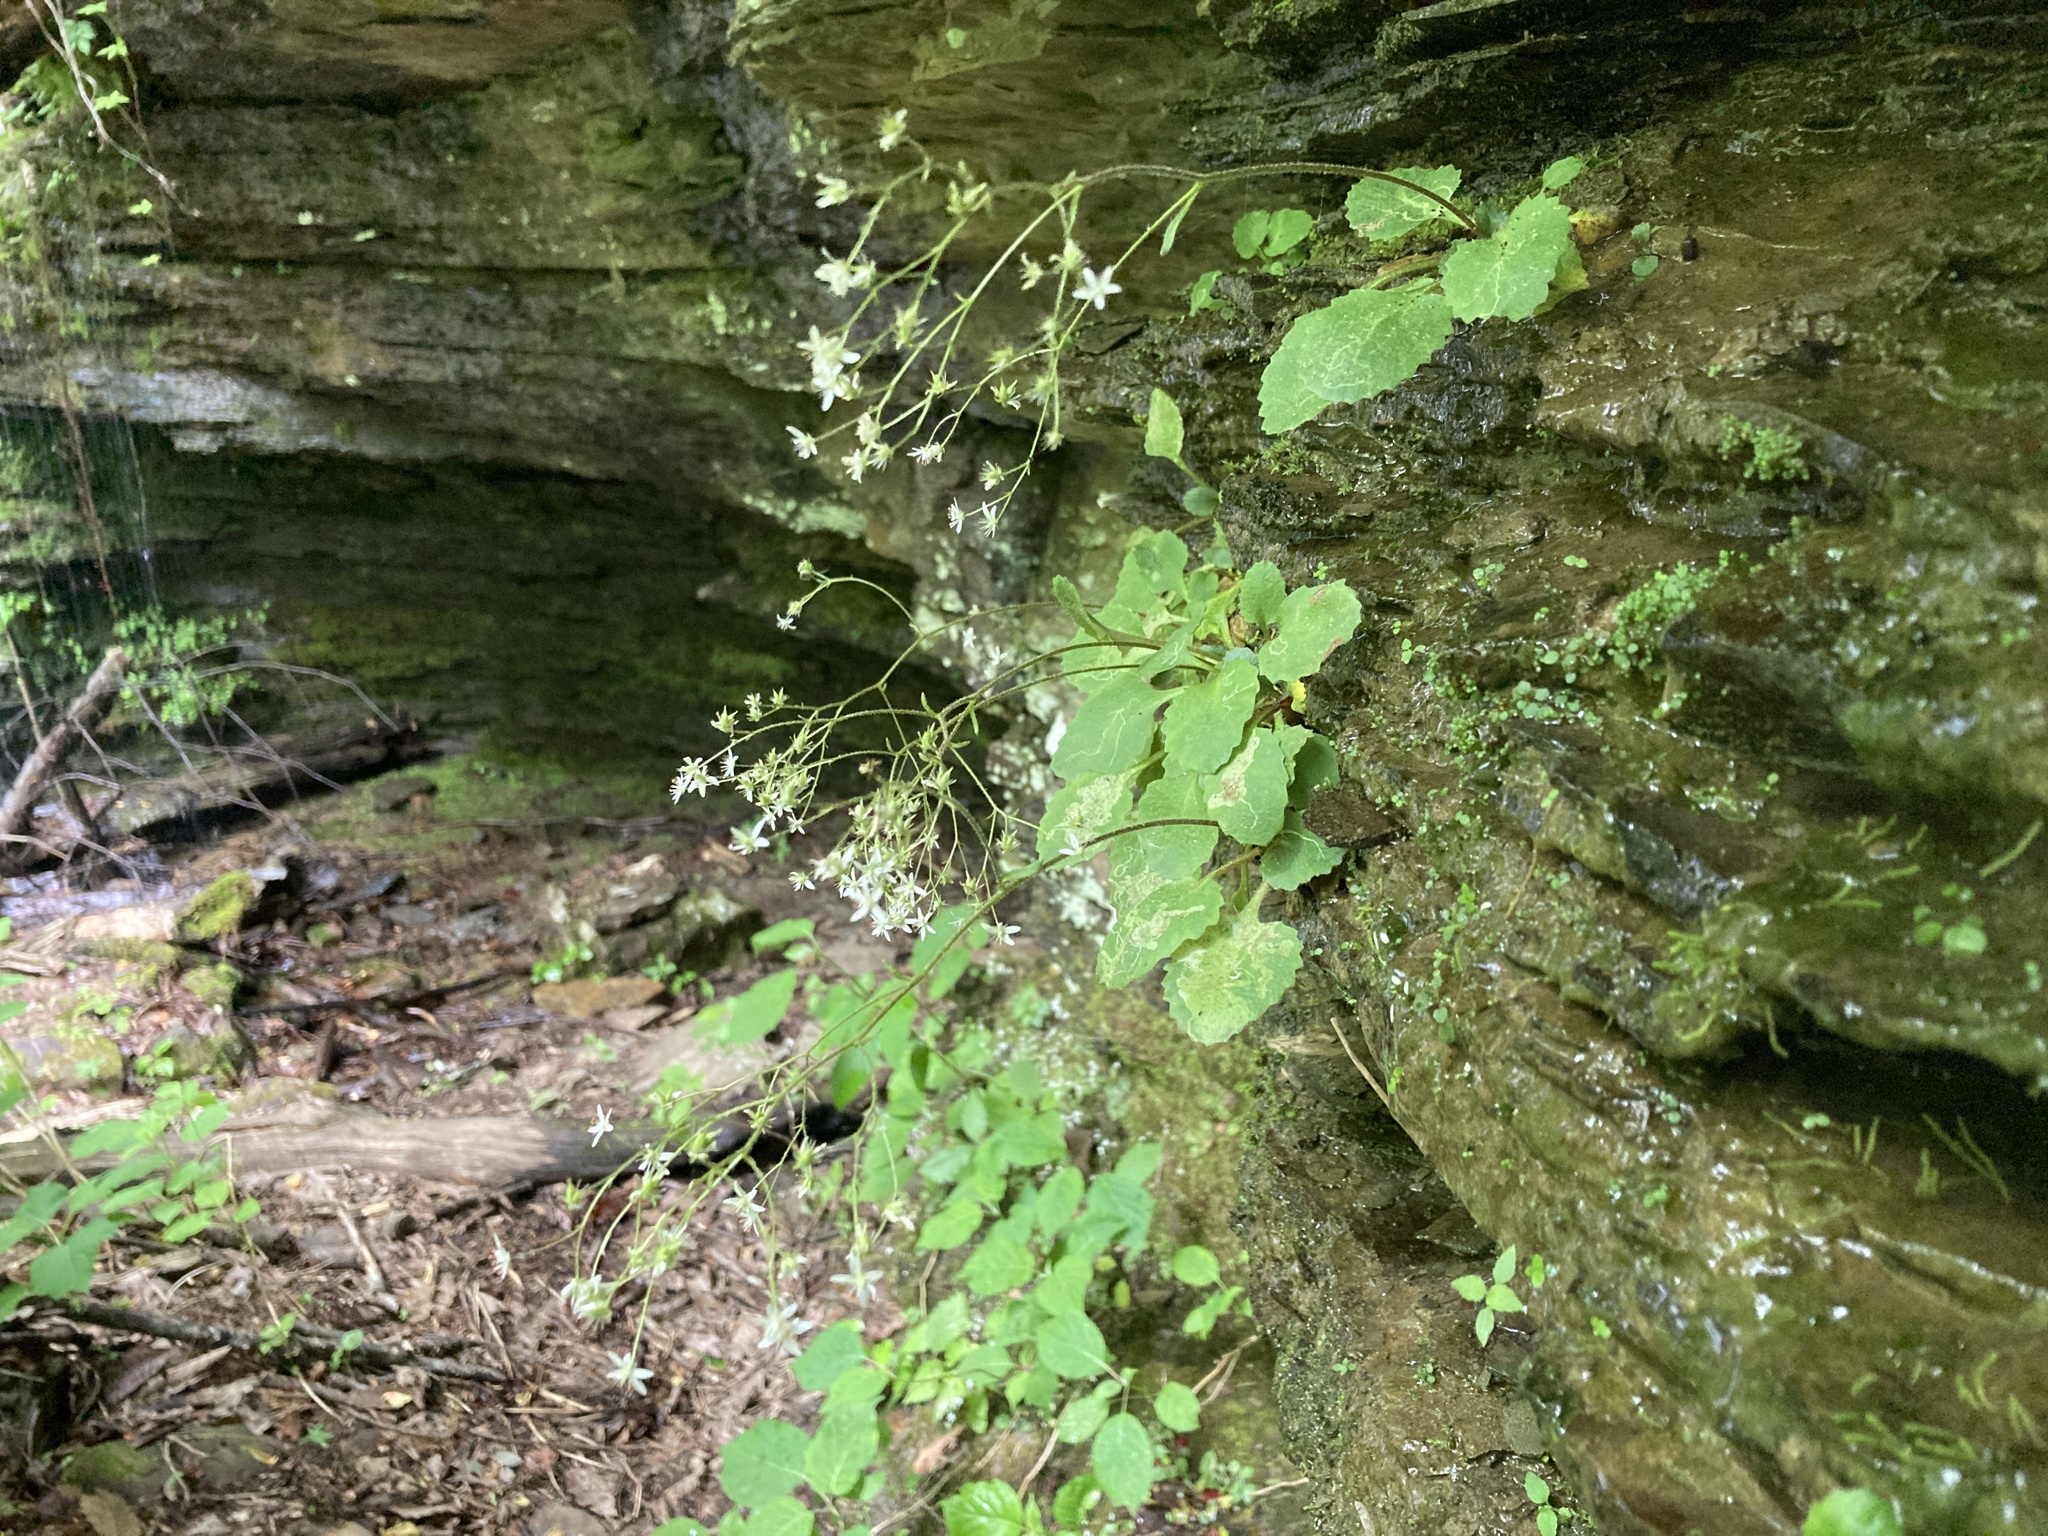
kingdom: Plantae
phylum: Tracheophyta
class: Magnoliopsida
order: Saxifragales
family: Saxifragaceae
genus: Micranthes
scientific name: Micranthes careyana
